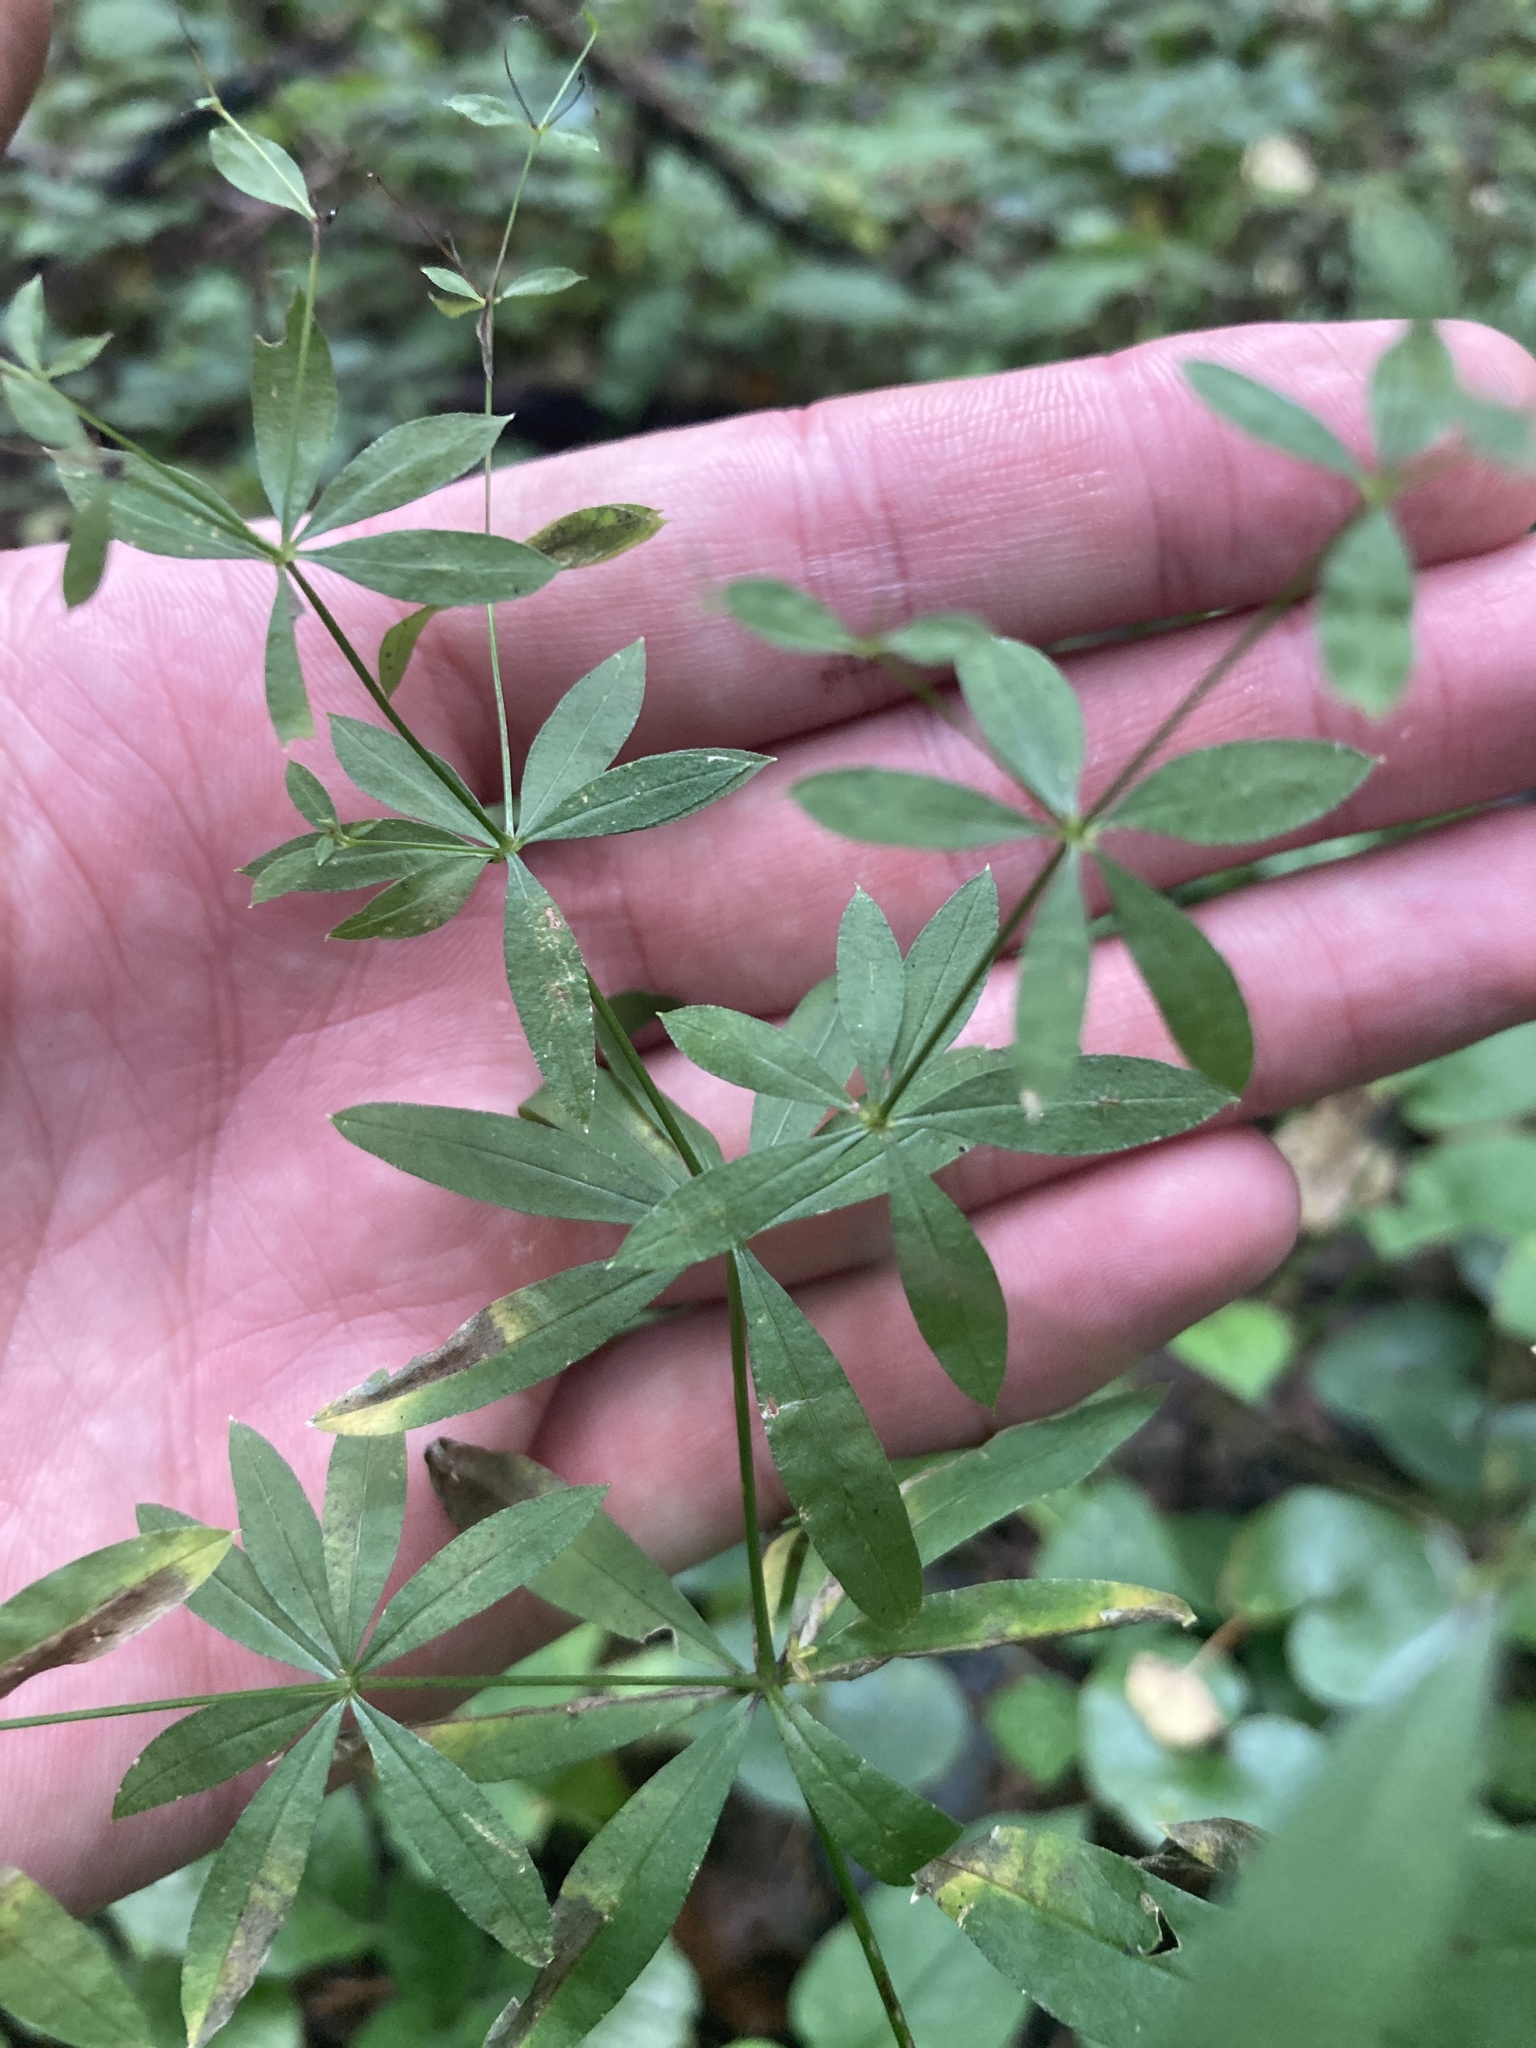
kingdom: Plantae
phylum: Tracheophyta
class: Magnoliopsida
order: Gentianales
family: Rubiaceae
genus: Galium
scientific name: Galium intermedium
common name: Bedstraw
